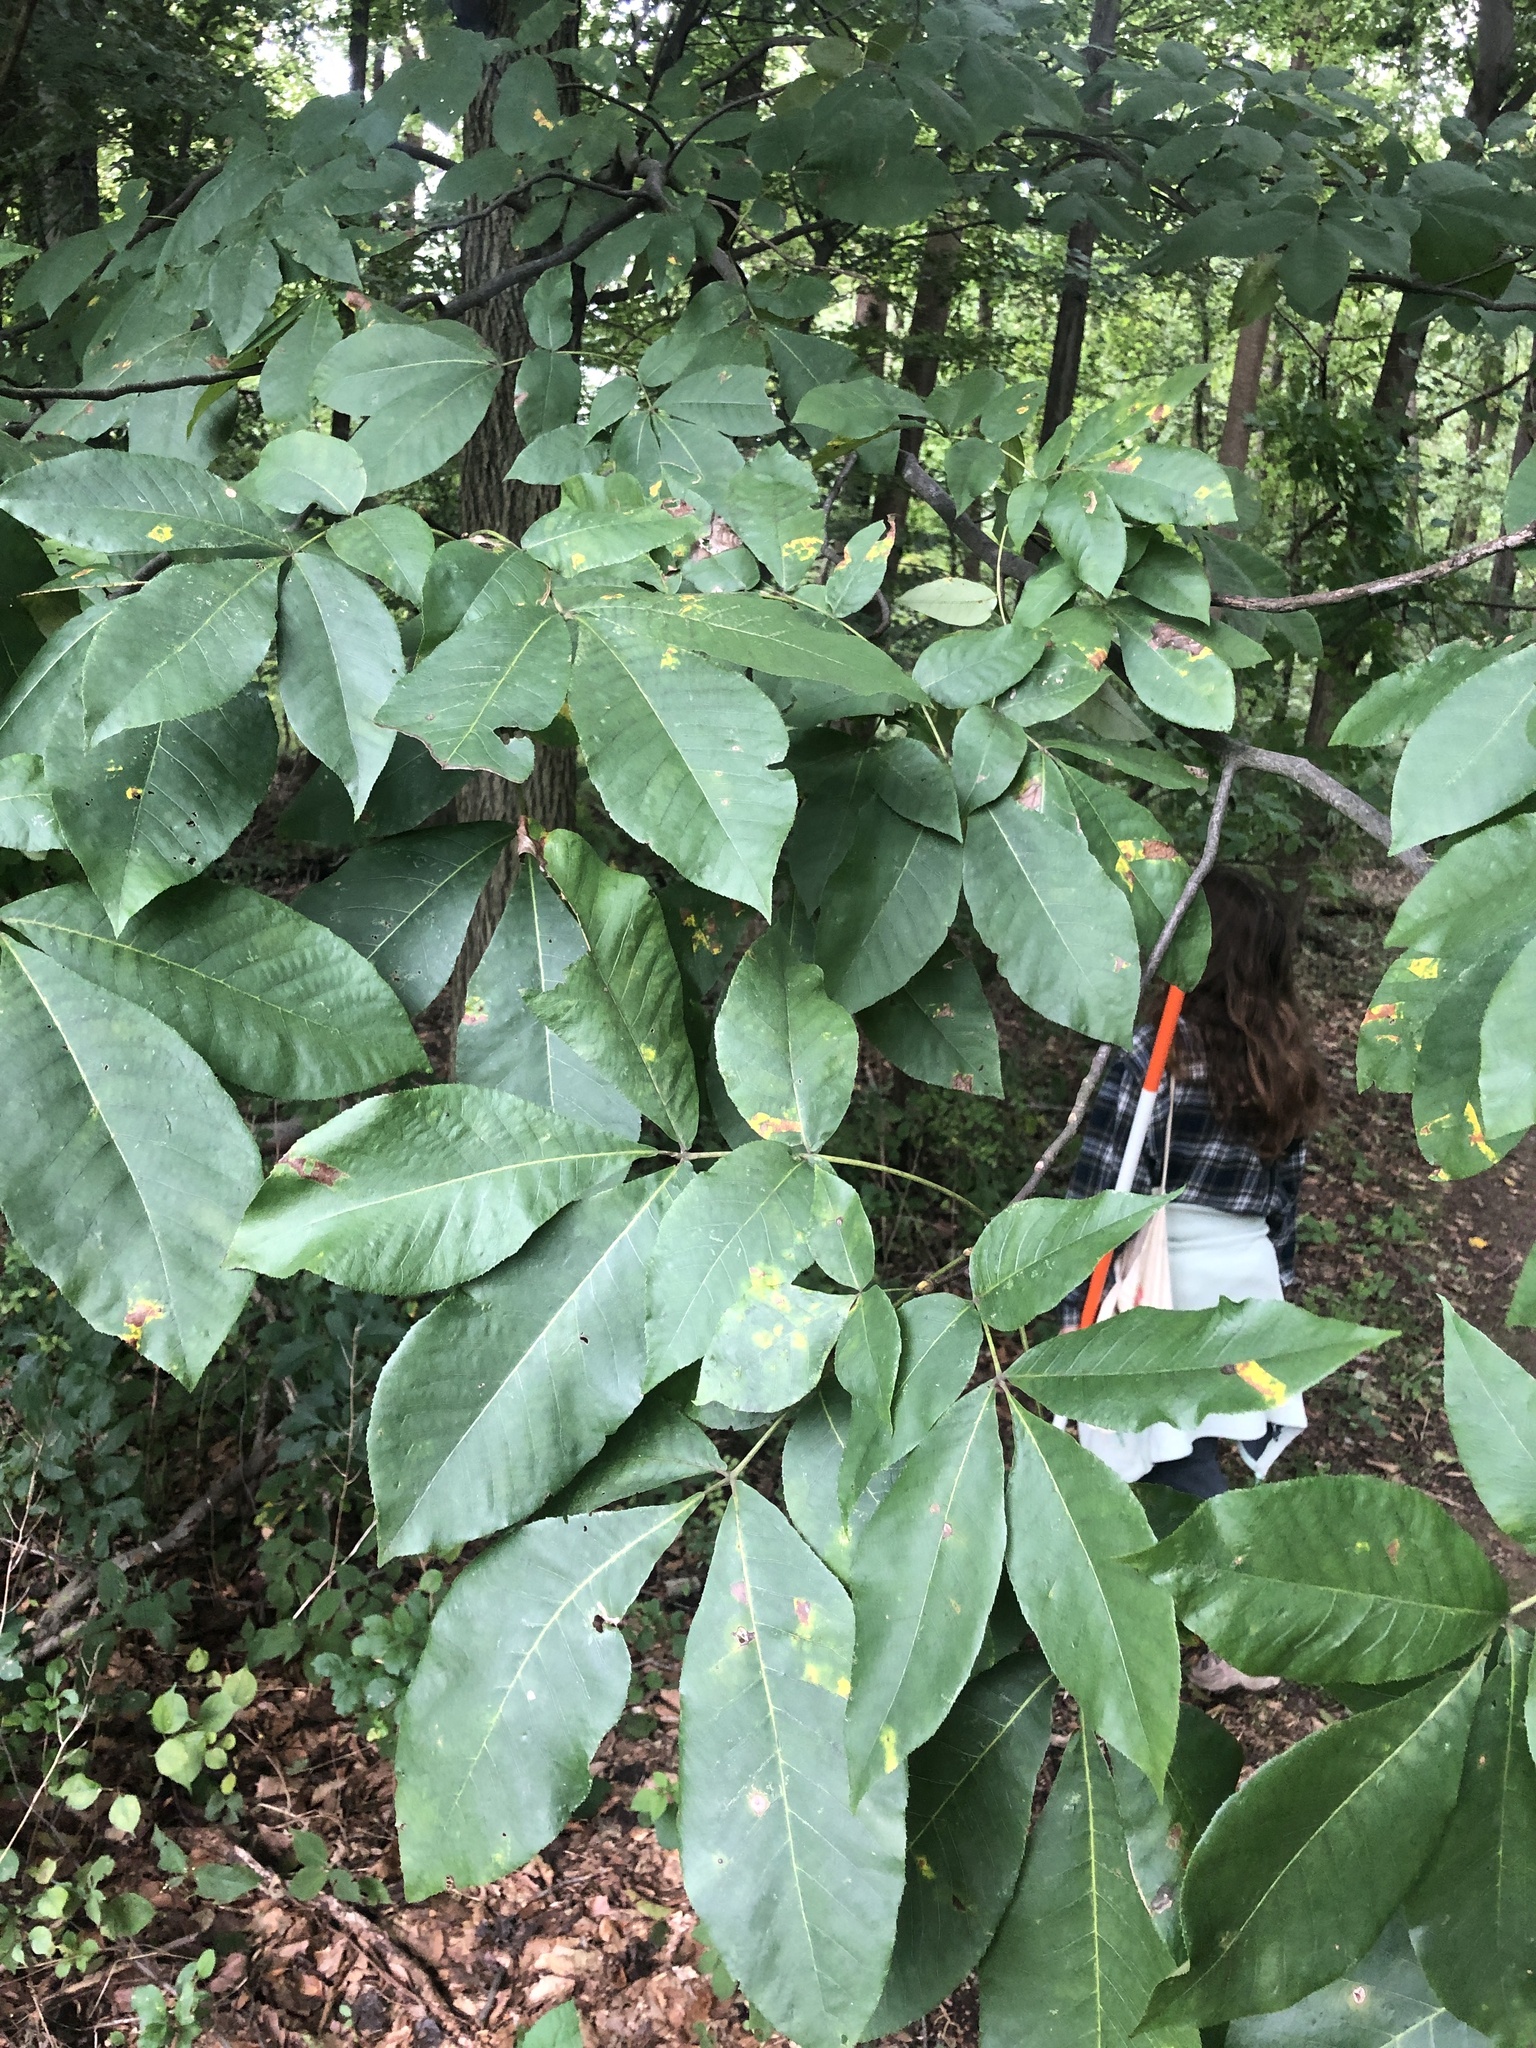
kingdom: Plantae
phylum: Tracheophyta
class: Magnoliopsida
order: Fagales
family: Juglandaceae
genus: Carya
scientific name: Carya glabra
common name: Pignut hickory
